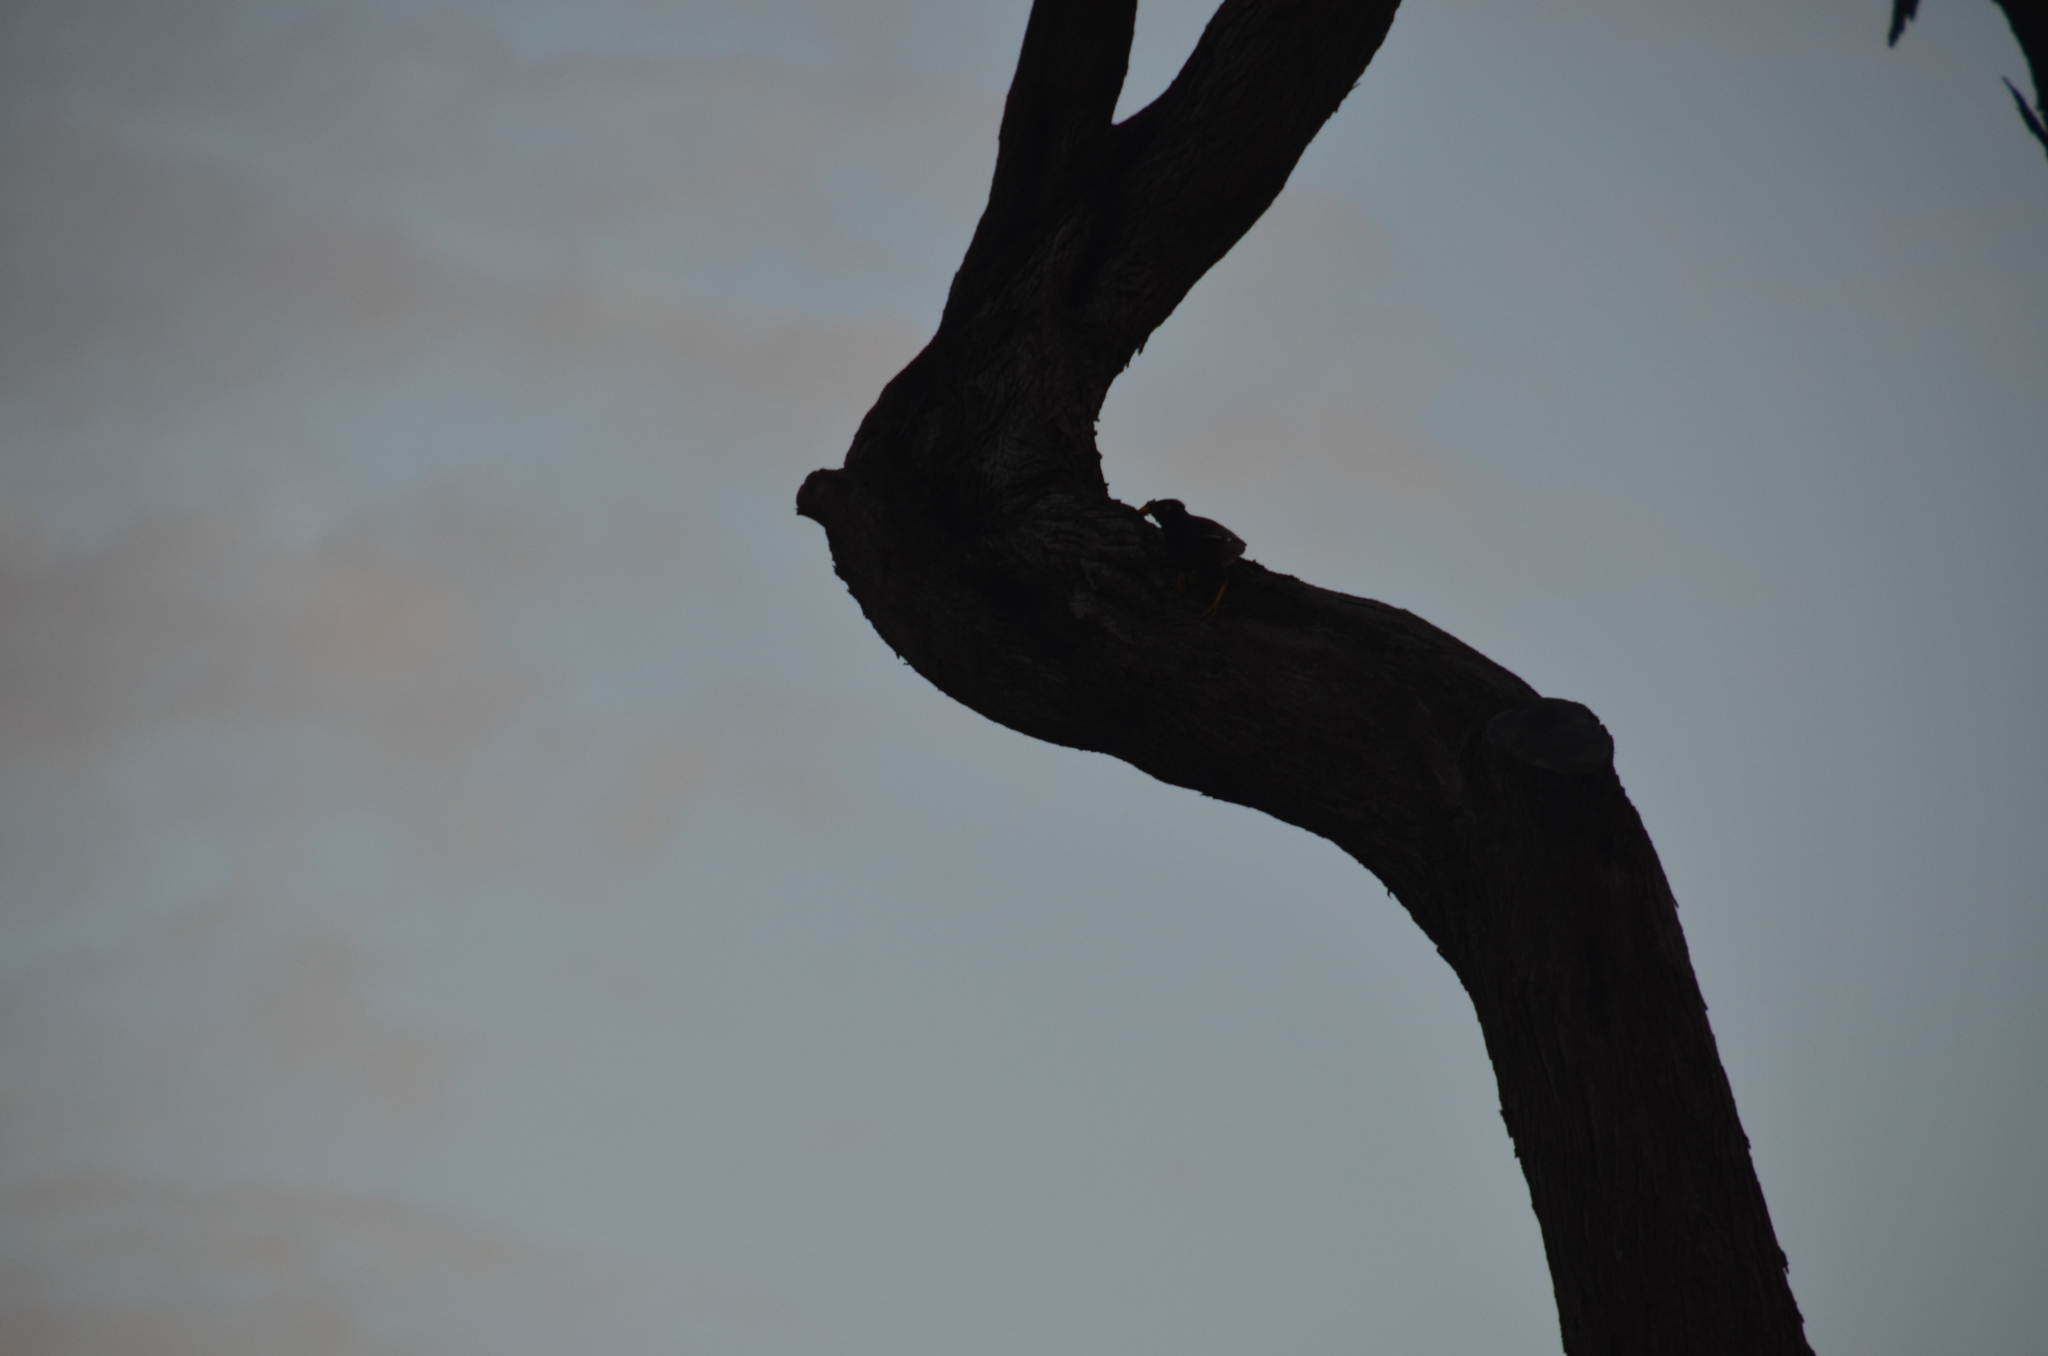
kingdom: Animalia
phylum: Chordata
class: Aves
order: Passeriformes
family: Sturnidae
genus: Acridotheres
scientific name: Acridotheres tristis
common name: Common myna
